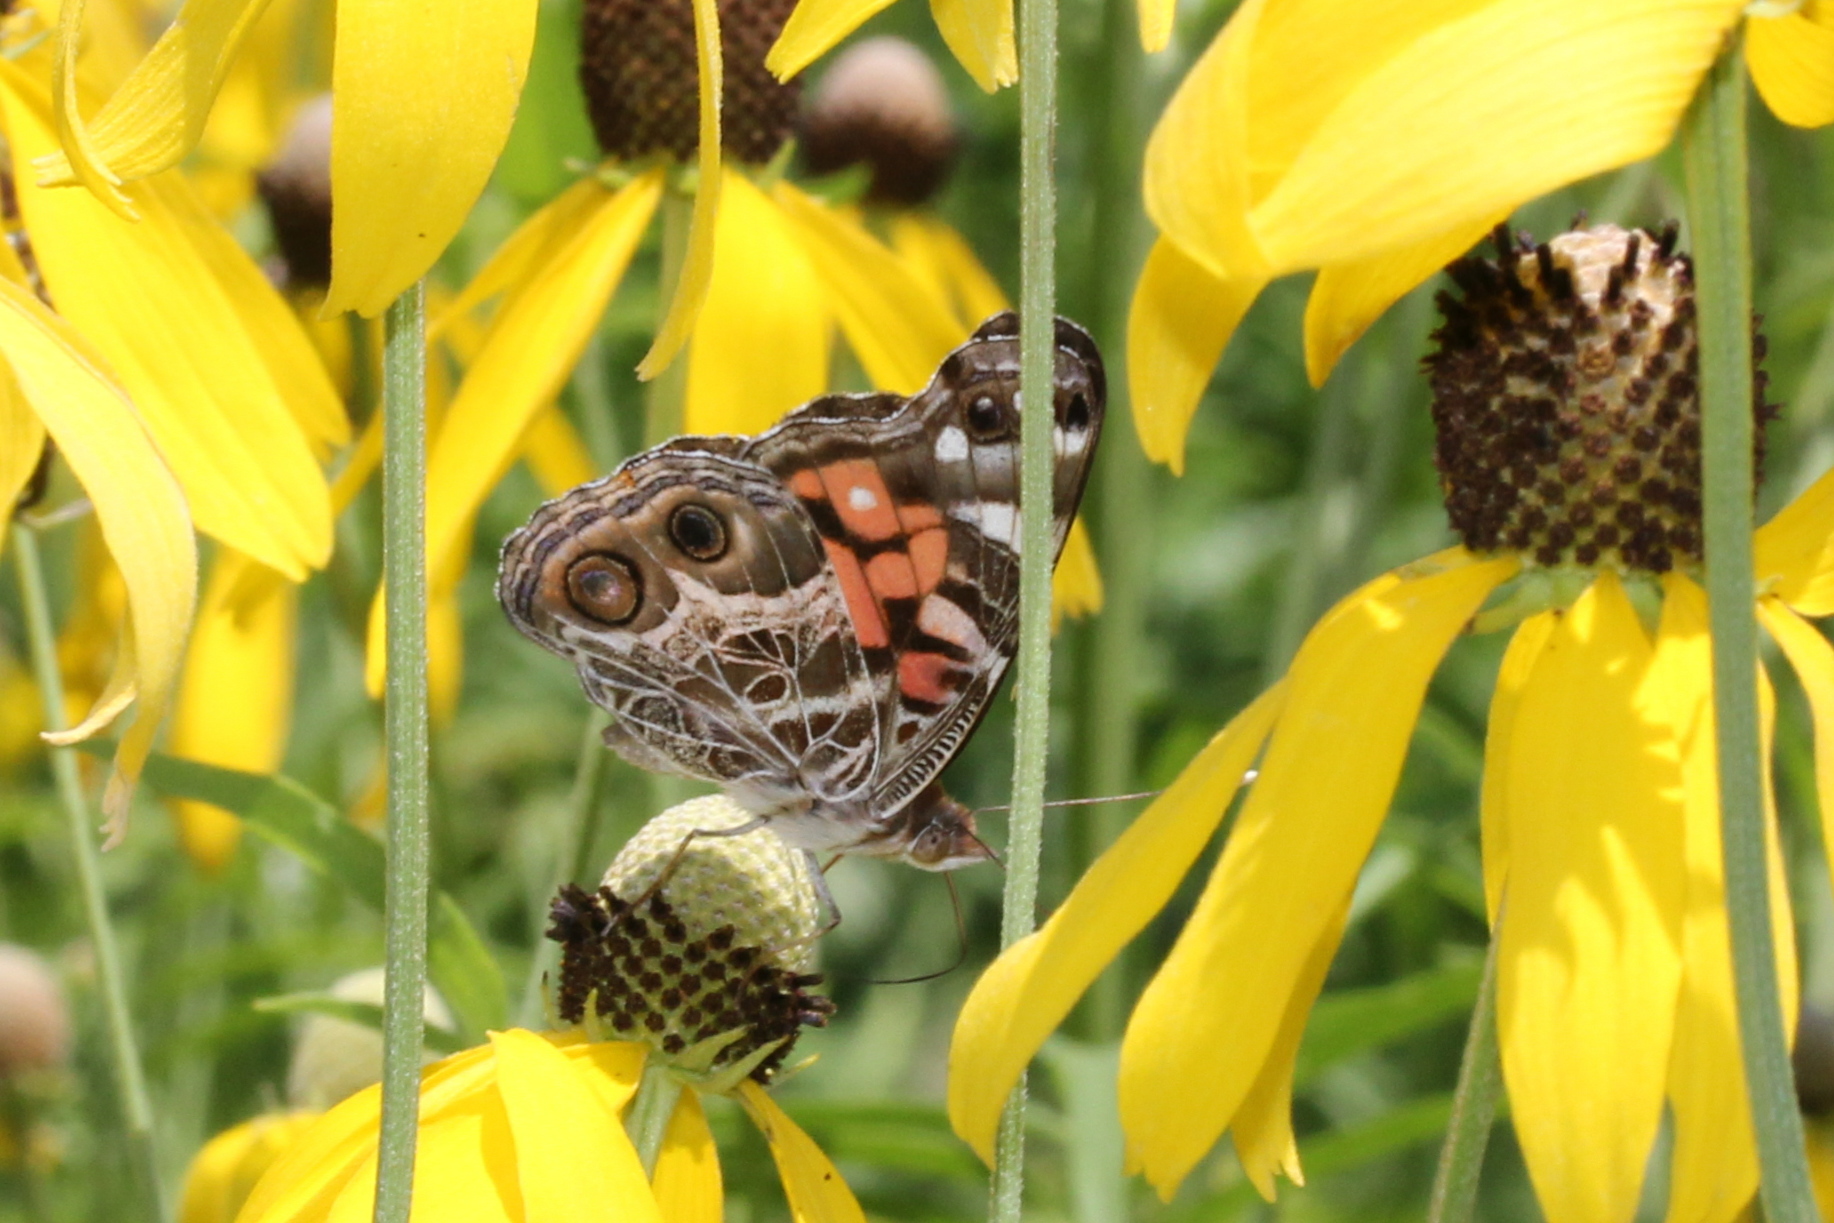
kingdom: Animalia
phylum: Arthropoda
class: Insecta
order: Lepidoptera
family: Nymphalidae
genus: Vanessa
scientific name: Vanessa virginiensis
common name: American lady
